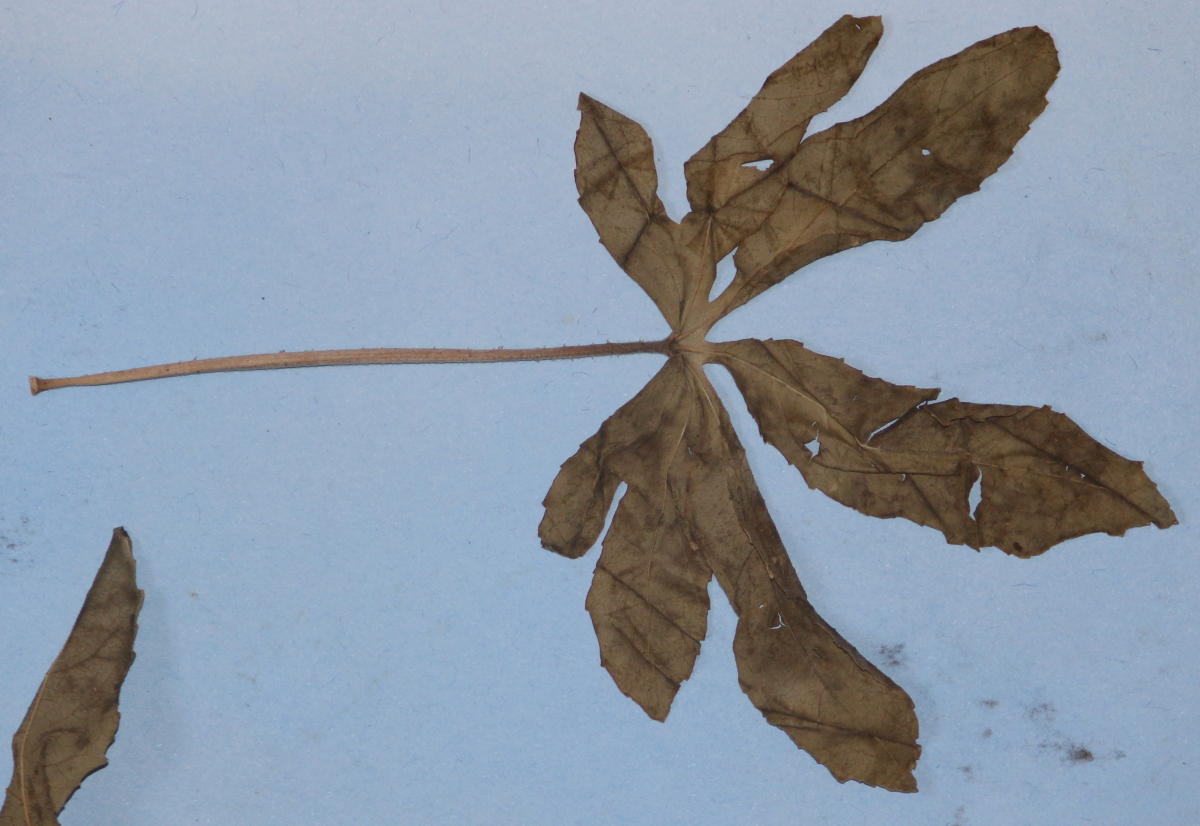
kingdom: Plantae
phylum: Tracheophyta
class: Magnoliopsida
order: Malvales
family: Malvaceae
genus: Hibiscus
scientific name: Hibiscus cannabinus
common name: Brown indianhemp
